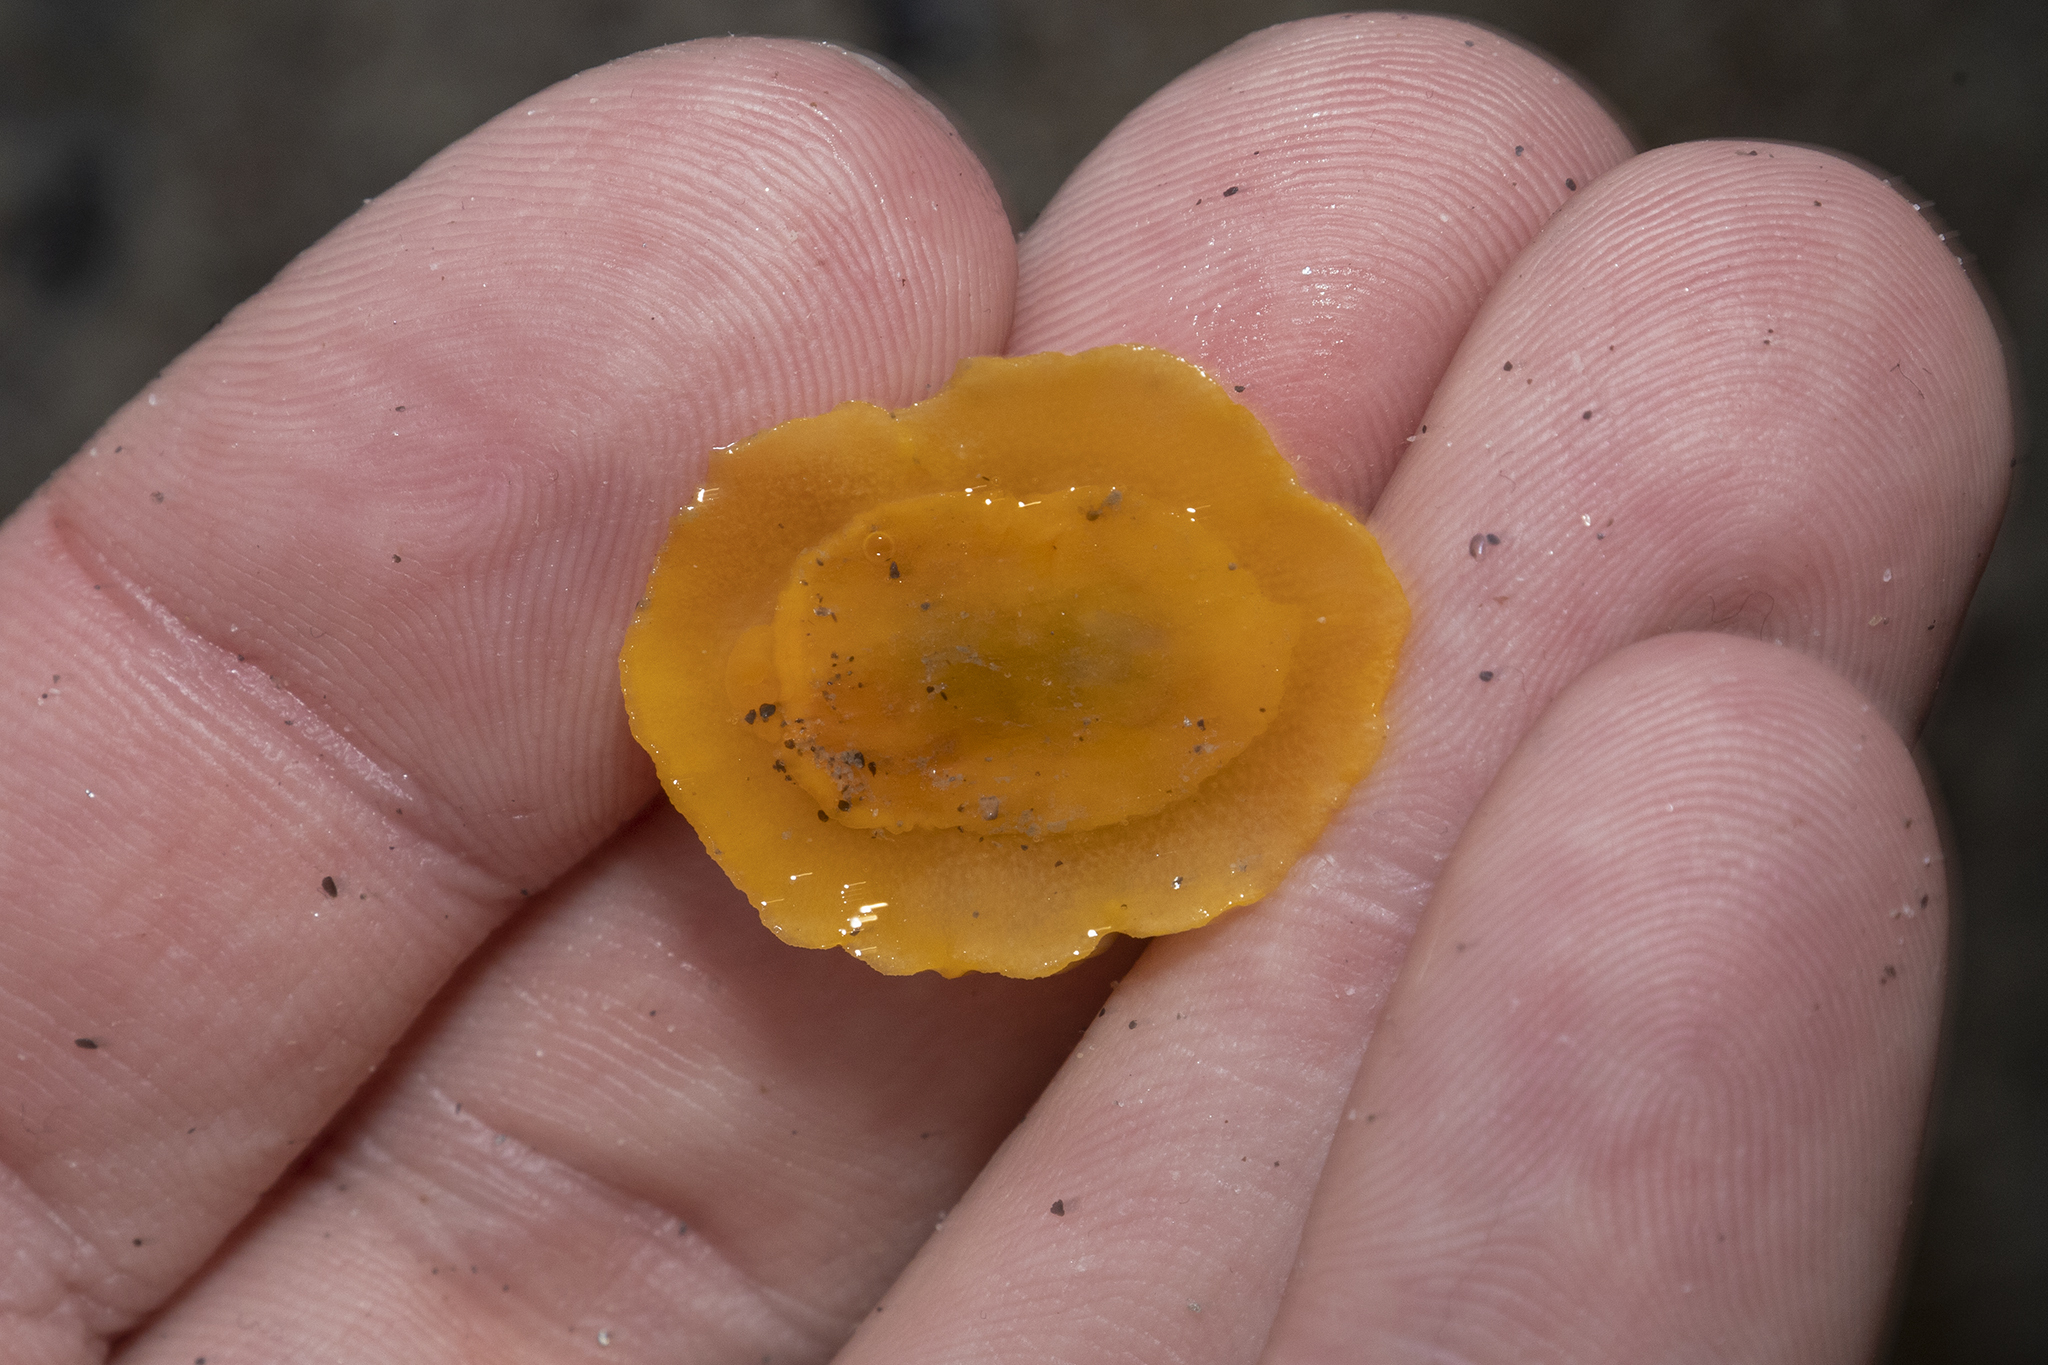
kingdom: Animalia
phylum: Mollusca
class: Gastropoda
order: Nudibranchia
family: Dorididae
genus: Doriopsis
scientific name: Doriopsis granulosa
